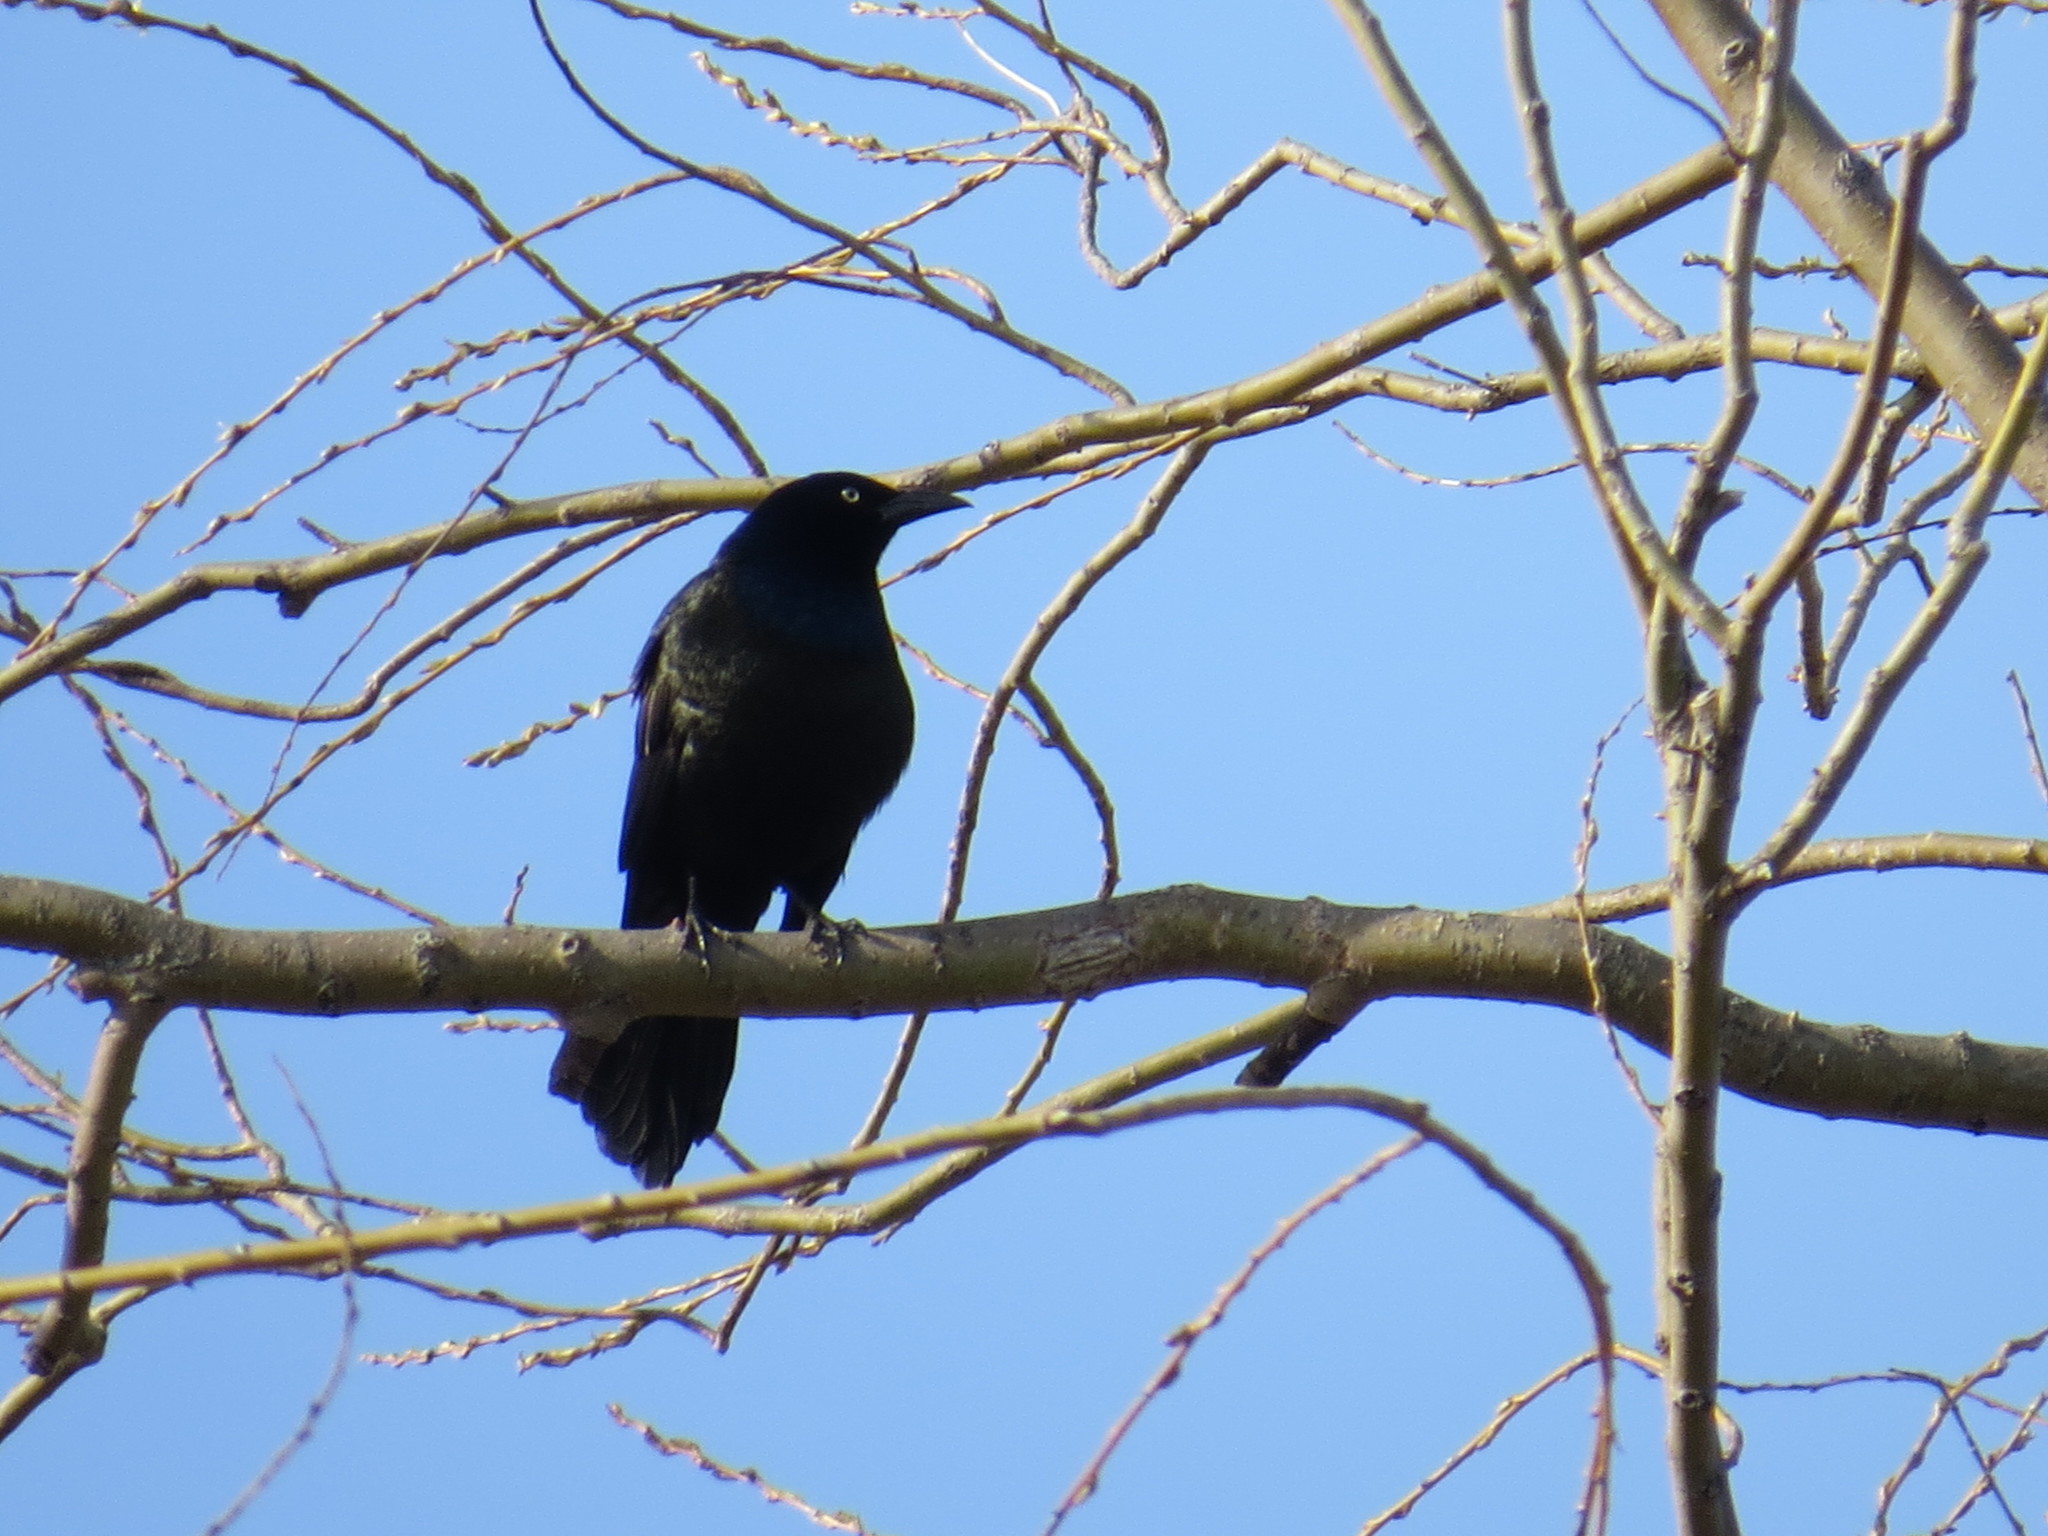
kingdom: Animalia
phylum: Chordata
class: Aves
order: Passeriformes
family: Icteridae
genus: Quiscalus
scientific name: Quiscalus quiscula
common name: Common grackle
